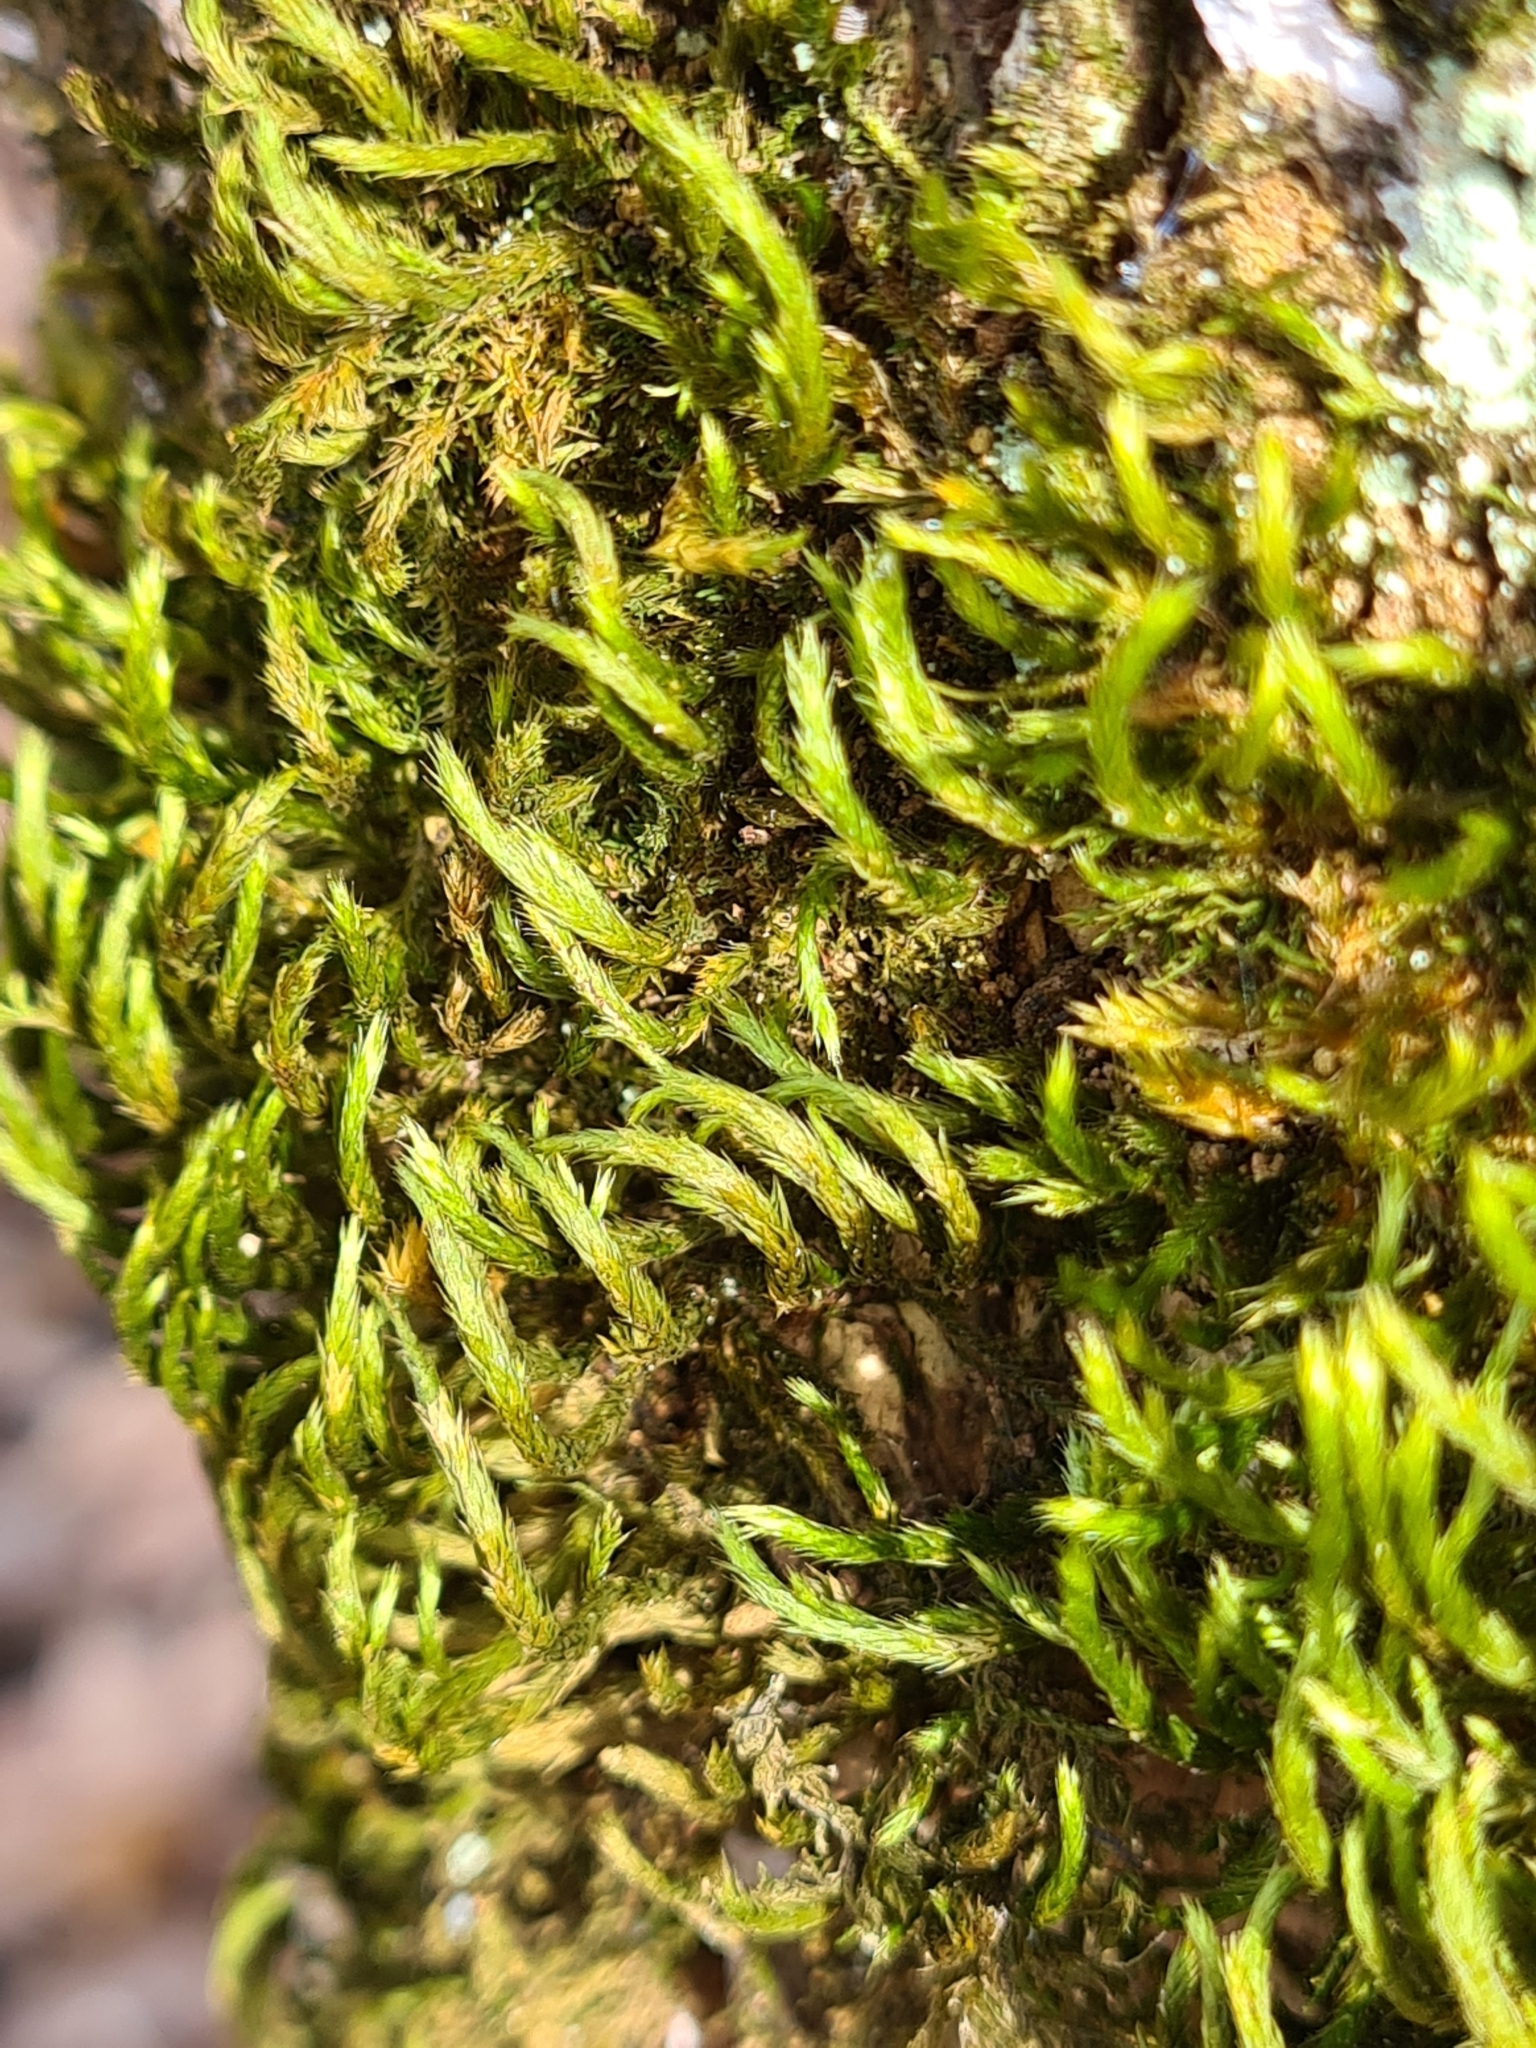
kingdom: Plantae
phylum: Bryophyta
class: Bryopsida
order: Hypnales
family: Leucodontaceae
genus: Leucodon
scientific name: Leucodon sciuroides
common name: Squirrel-tail moss
